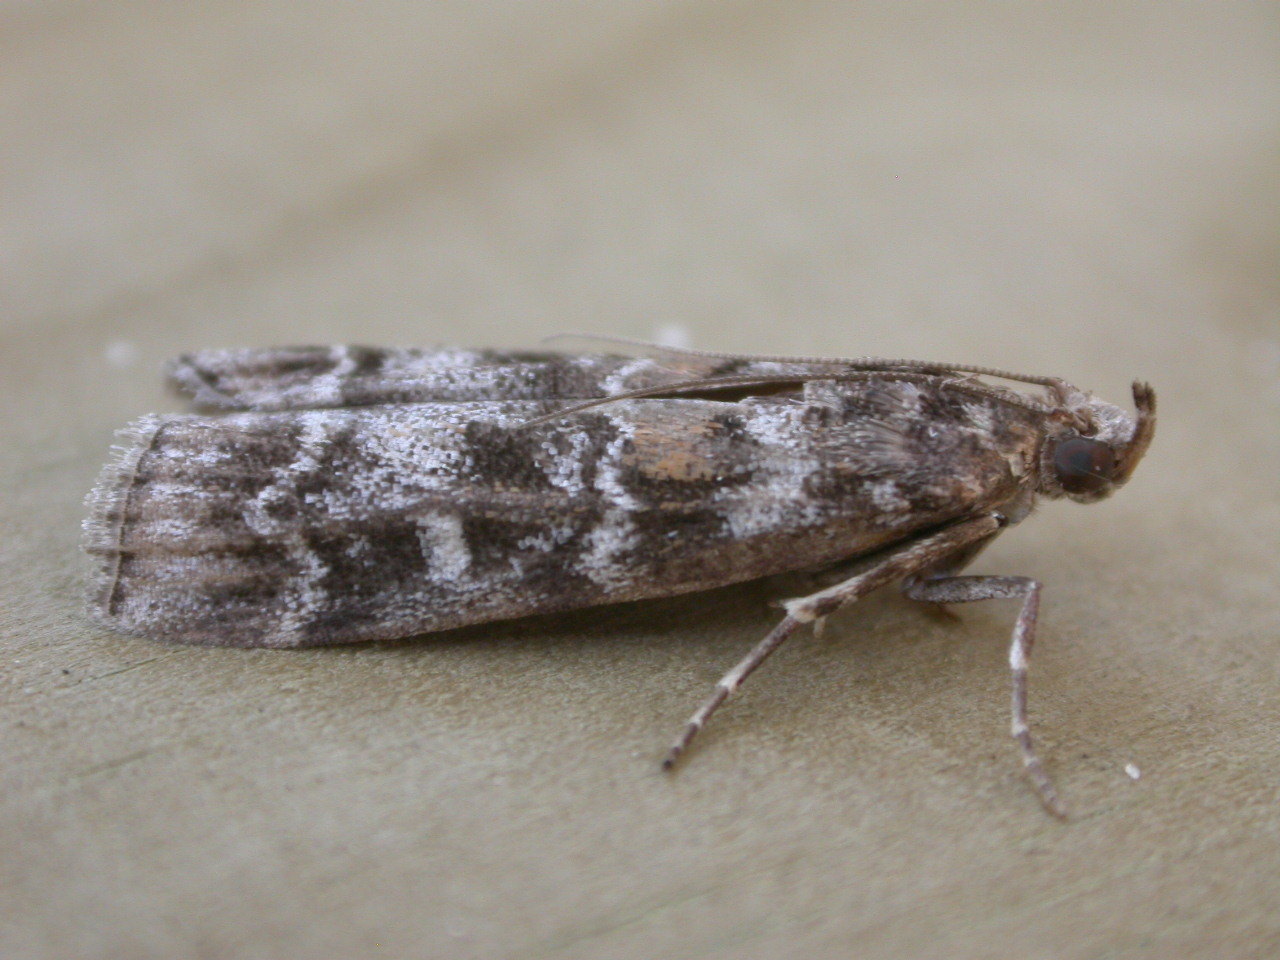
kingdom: Animalia
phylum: Arthropoda
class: Insecta
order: Lepidoptera
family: Pyralidae
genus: Dioryctria
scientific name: Dioryctria sylvestrella
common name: New pine knot-horn
